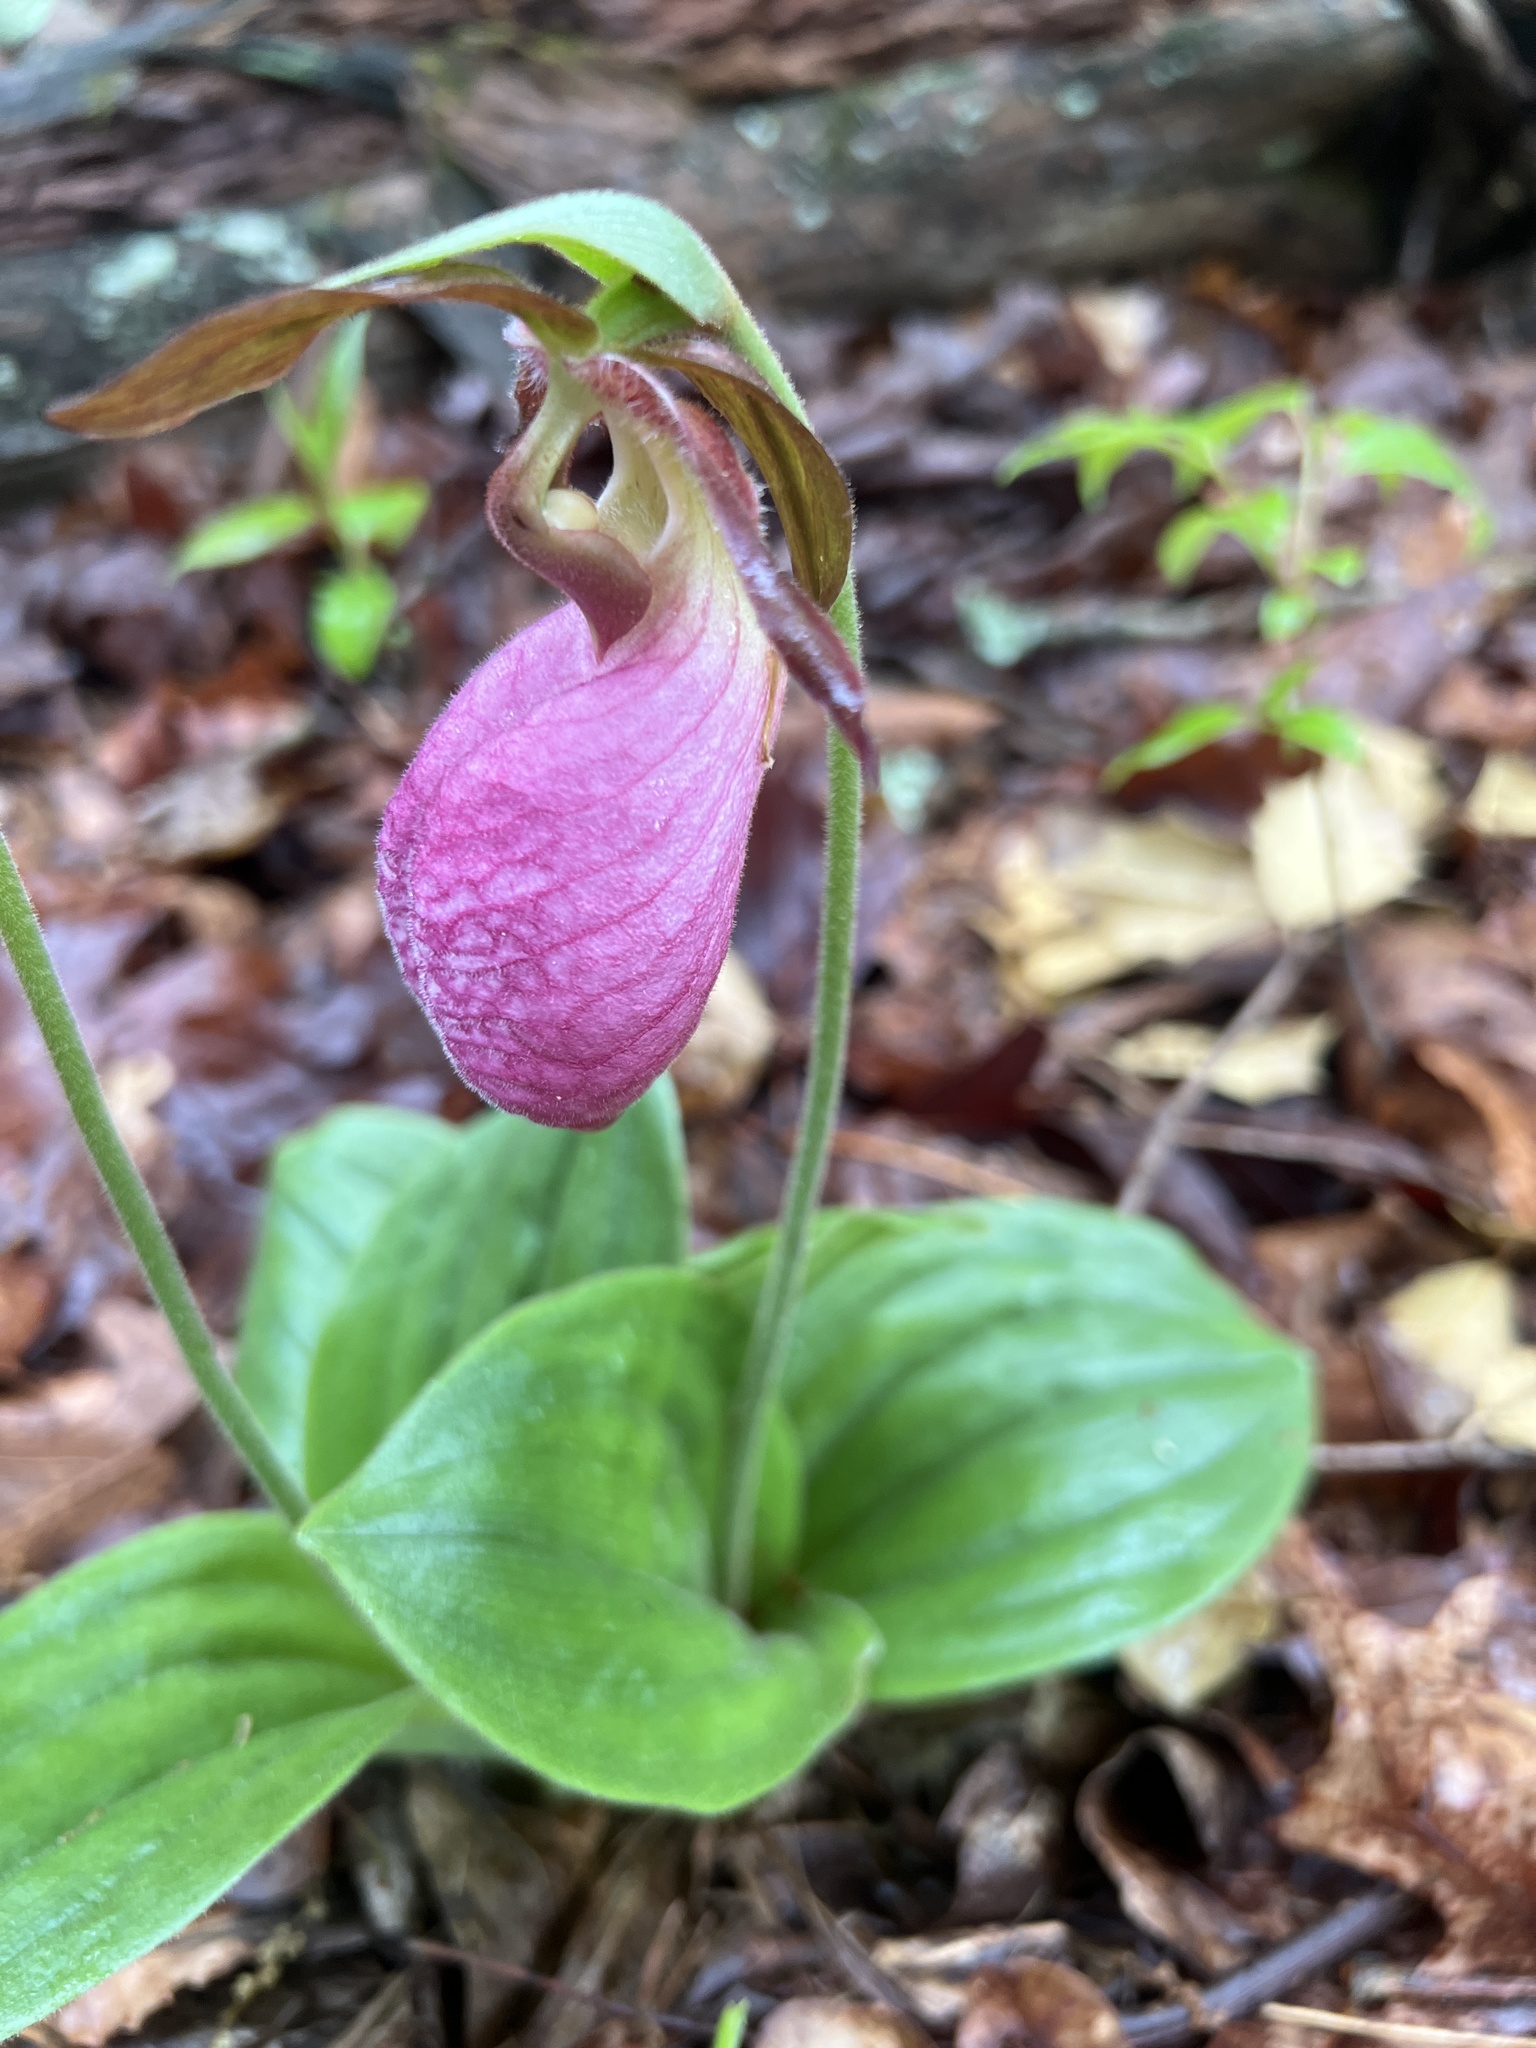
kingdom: Plantae
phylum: Tracheophyta
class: Liliopsida
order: Asparagales
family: Orchidaceae
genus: Cypripedium
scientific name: Cypripedium acaule
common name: Pink lady's-slipper
